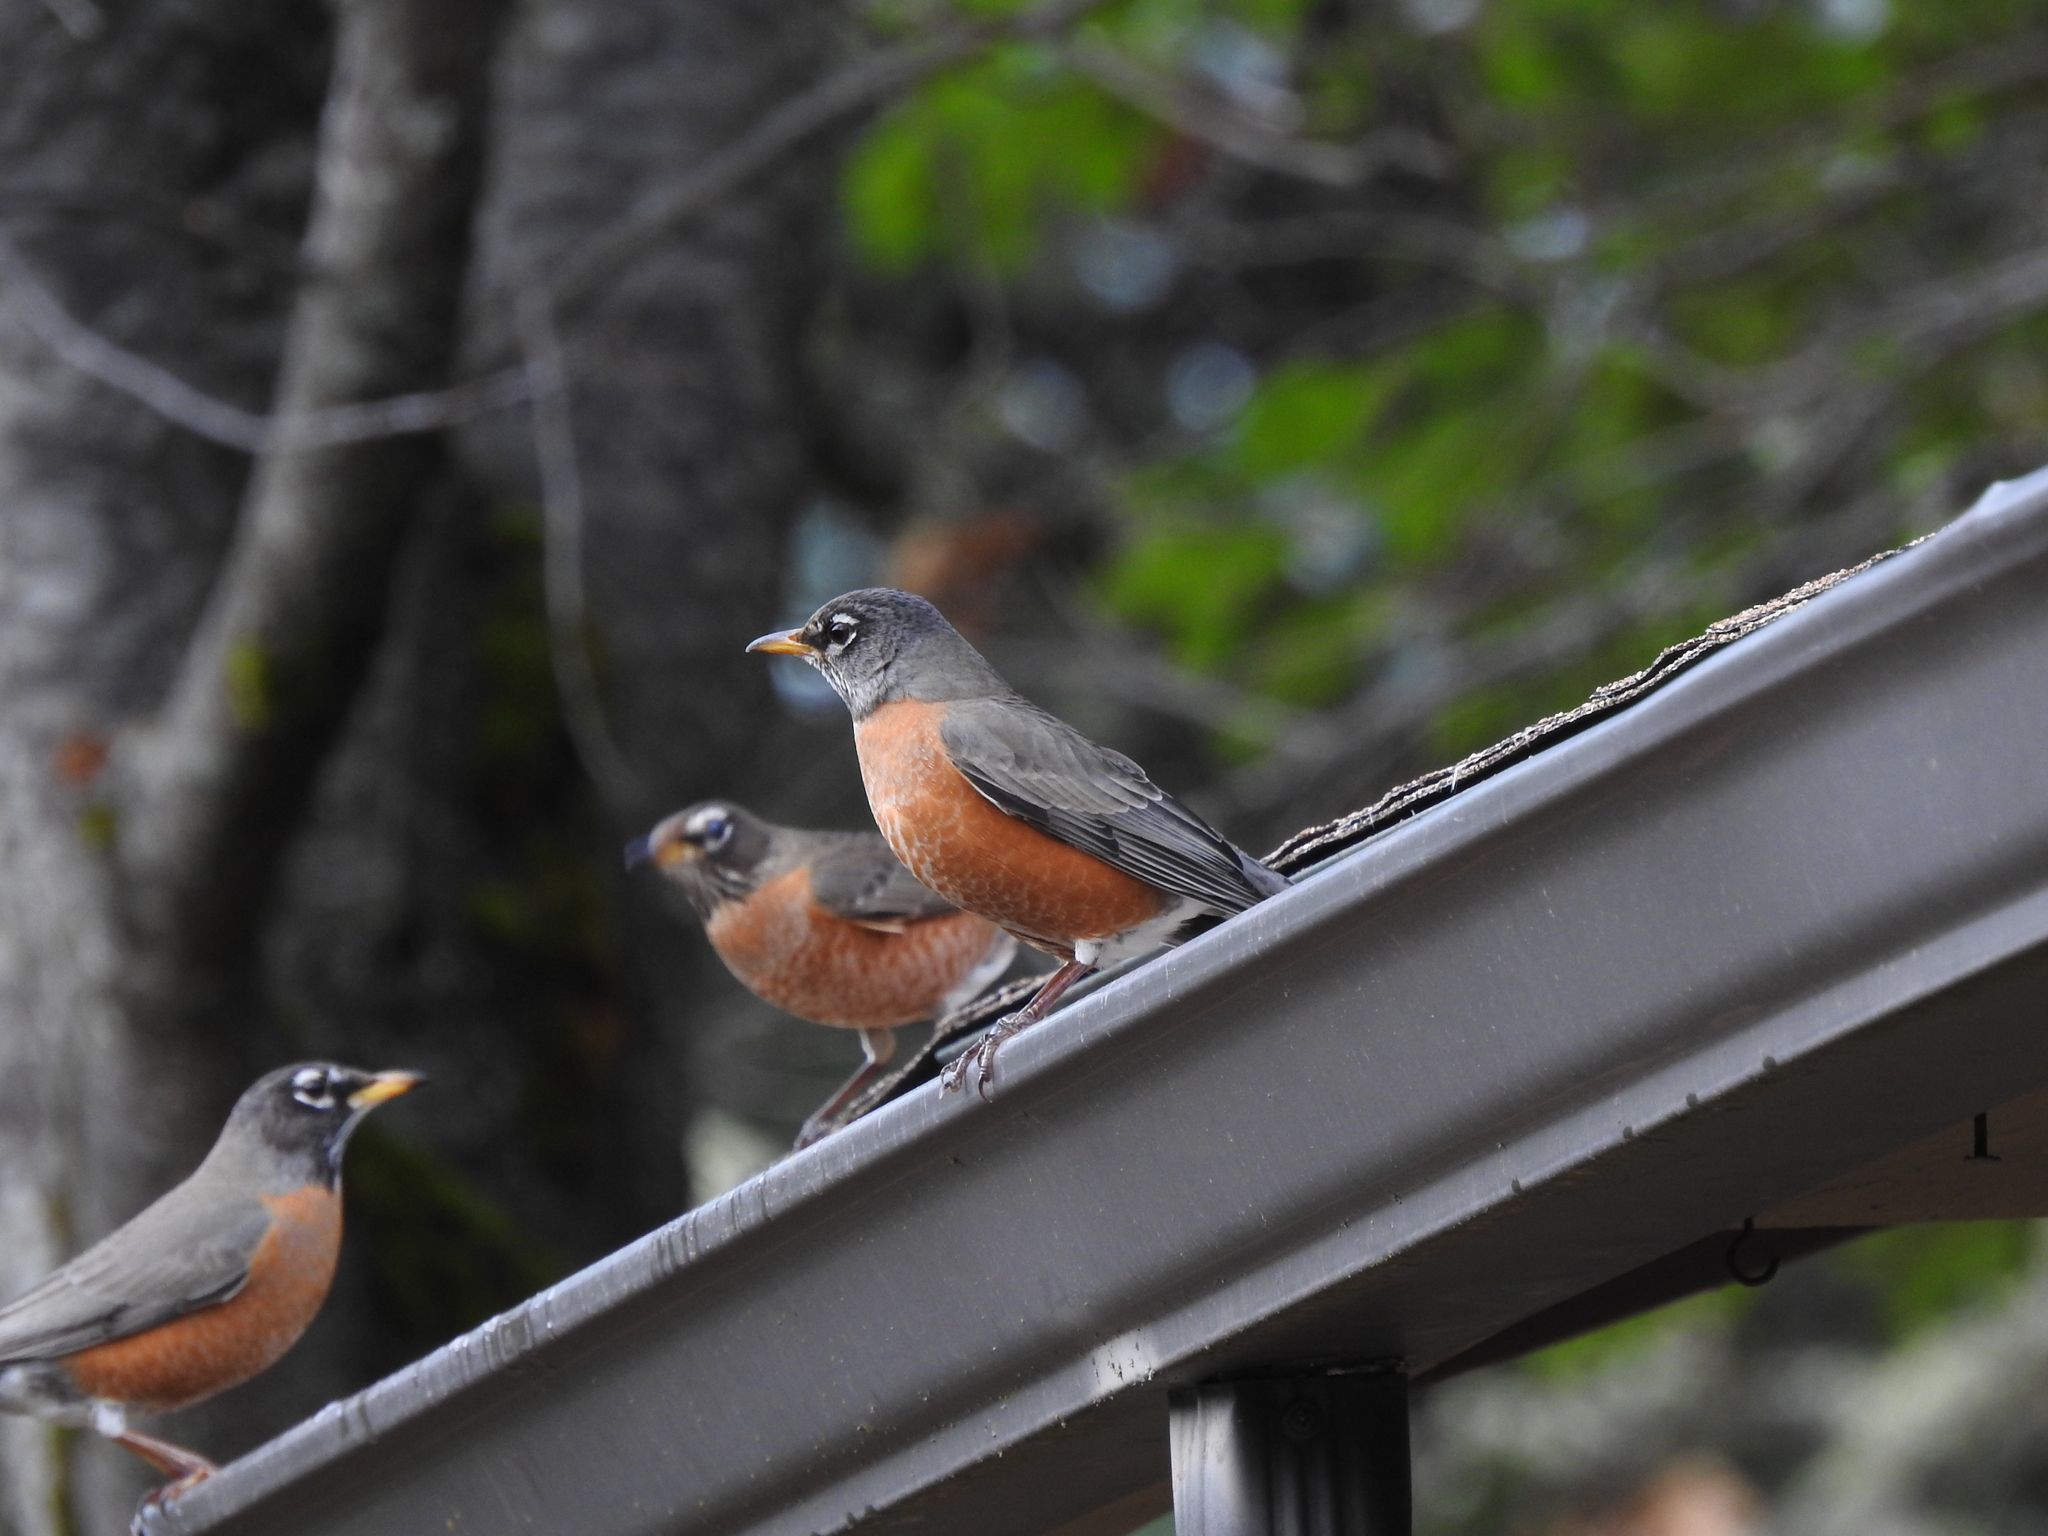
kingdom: Animalia
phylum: Chordata
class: Aves
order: Passeriformes
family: Turdidae
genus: Turdus
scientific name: Turdus migratorius
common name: American robin
